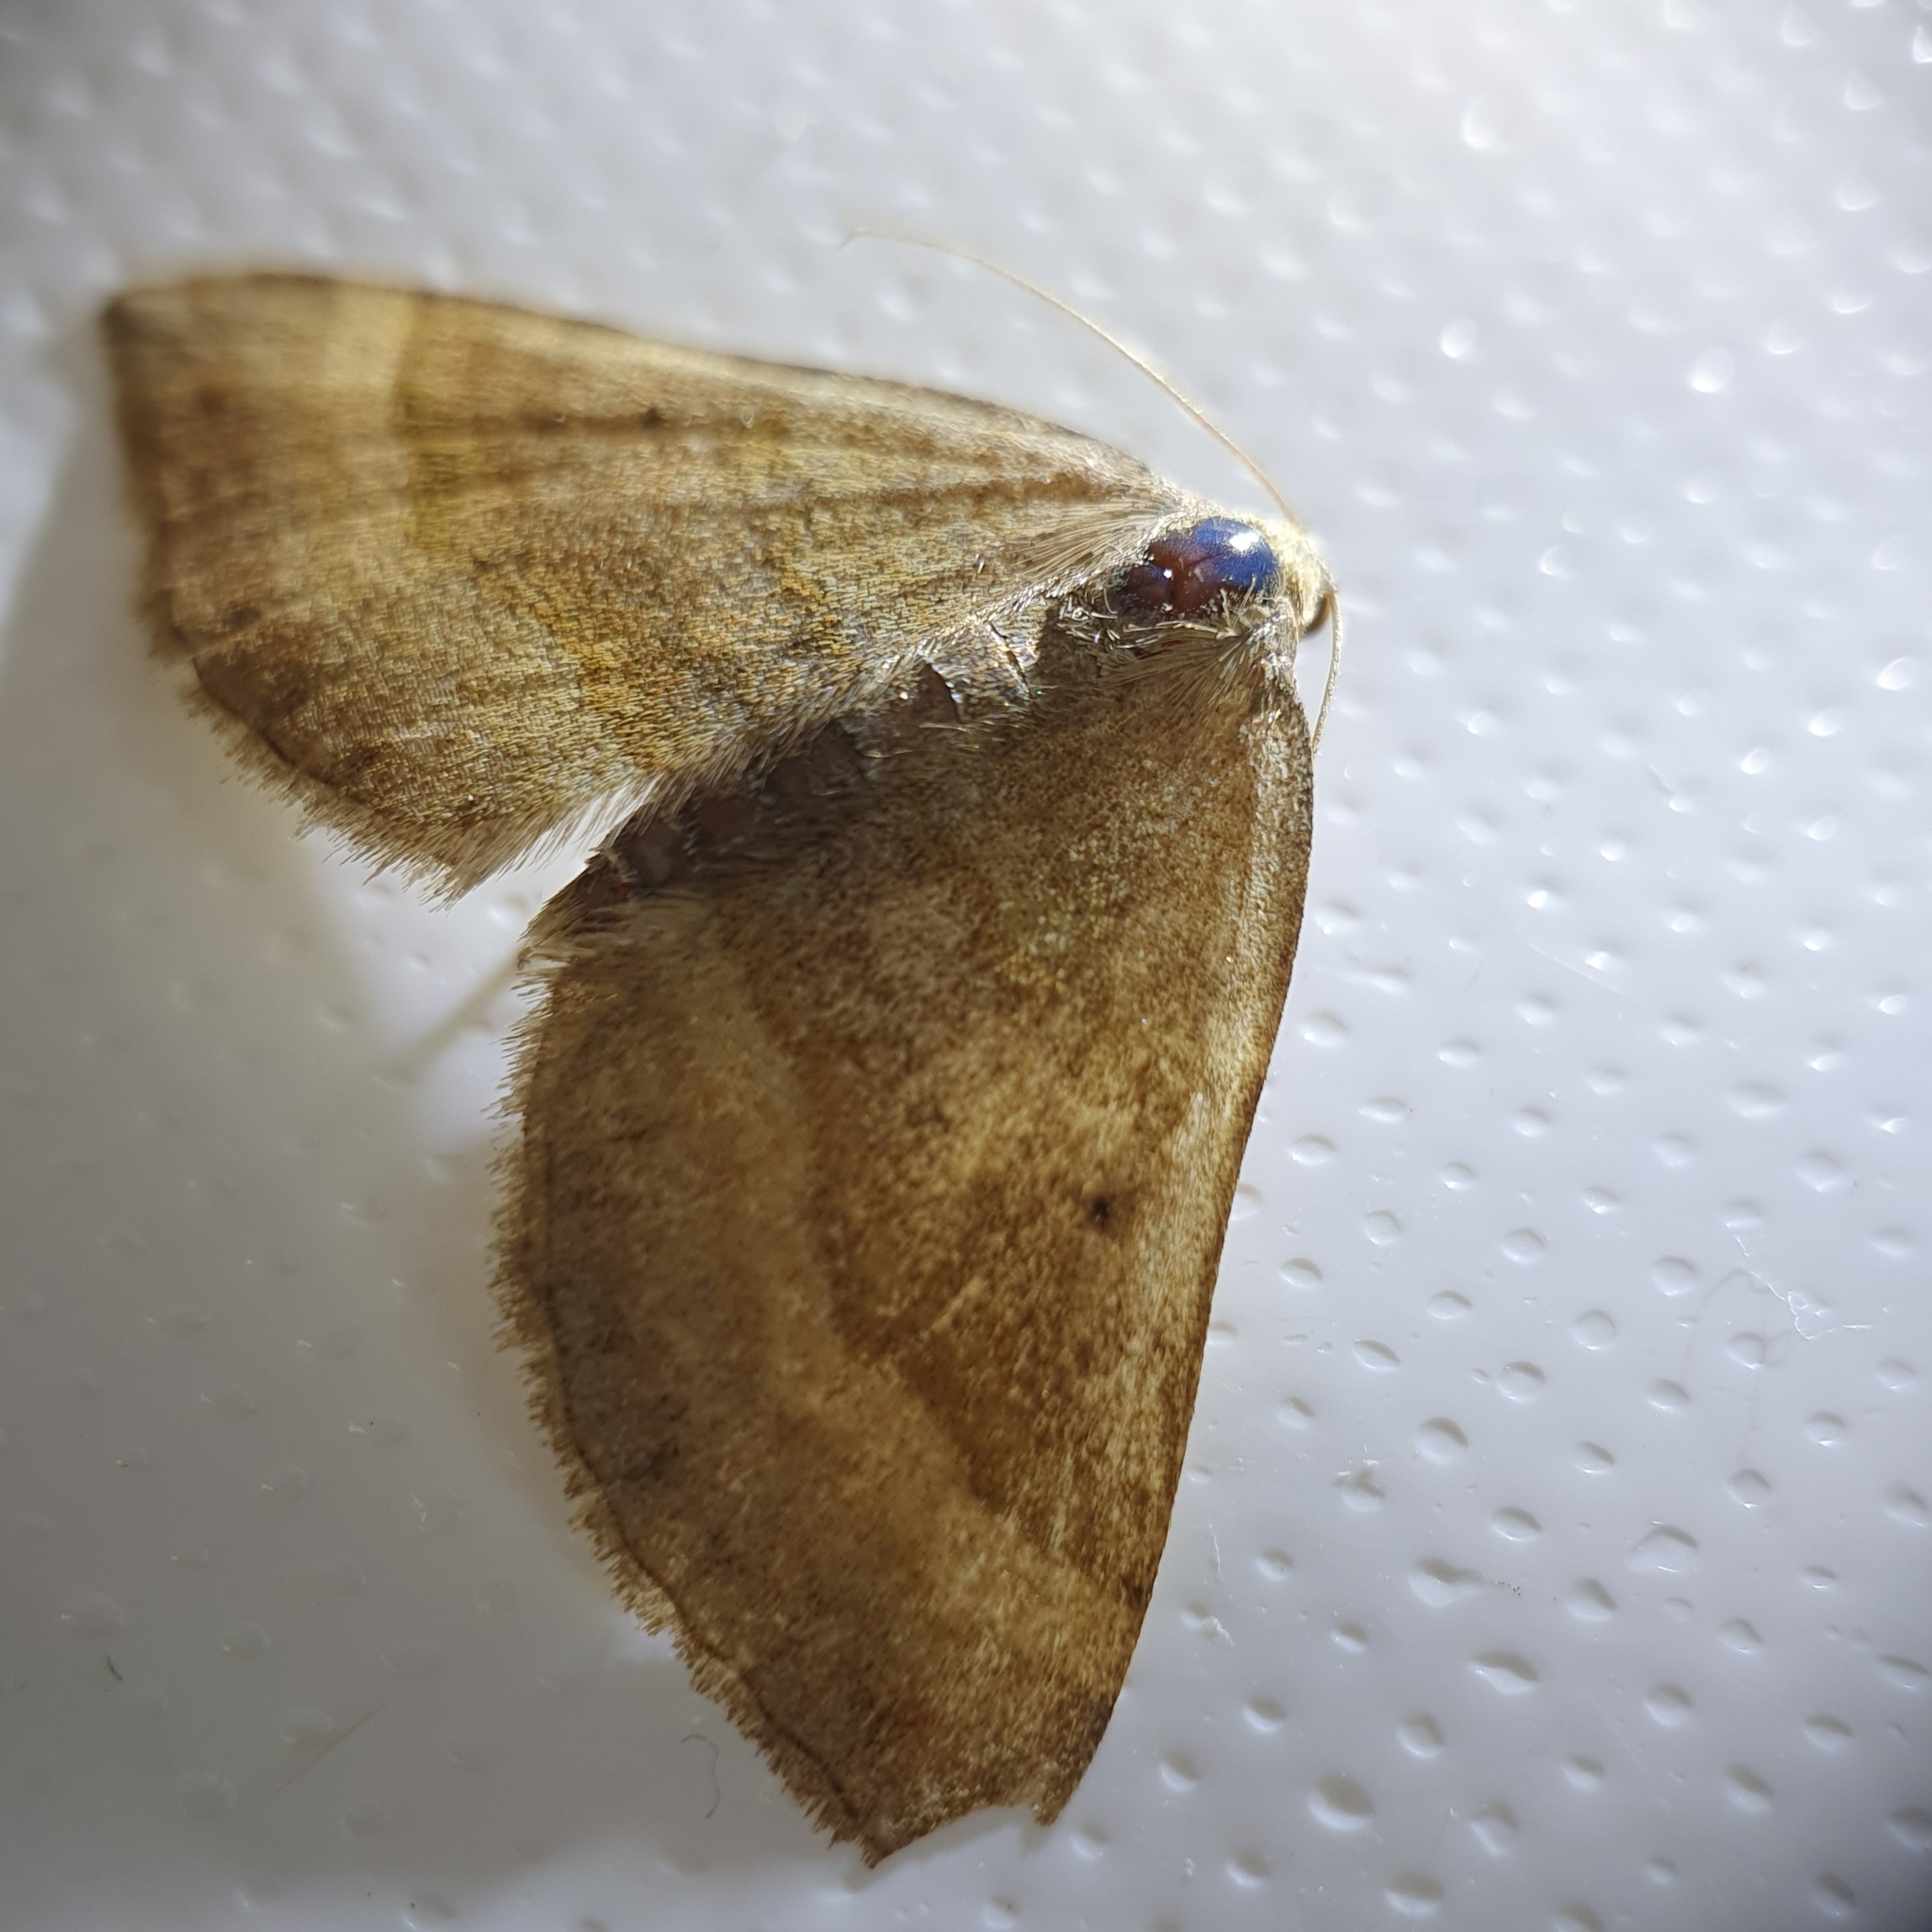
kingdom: Animalia
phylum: Arthropoda
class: Insecta
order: Lepidoptera
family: Geometridae
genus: Scotopteryx
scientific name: Scotopteryx chenopodiata
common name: Shaded broad-bar
